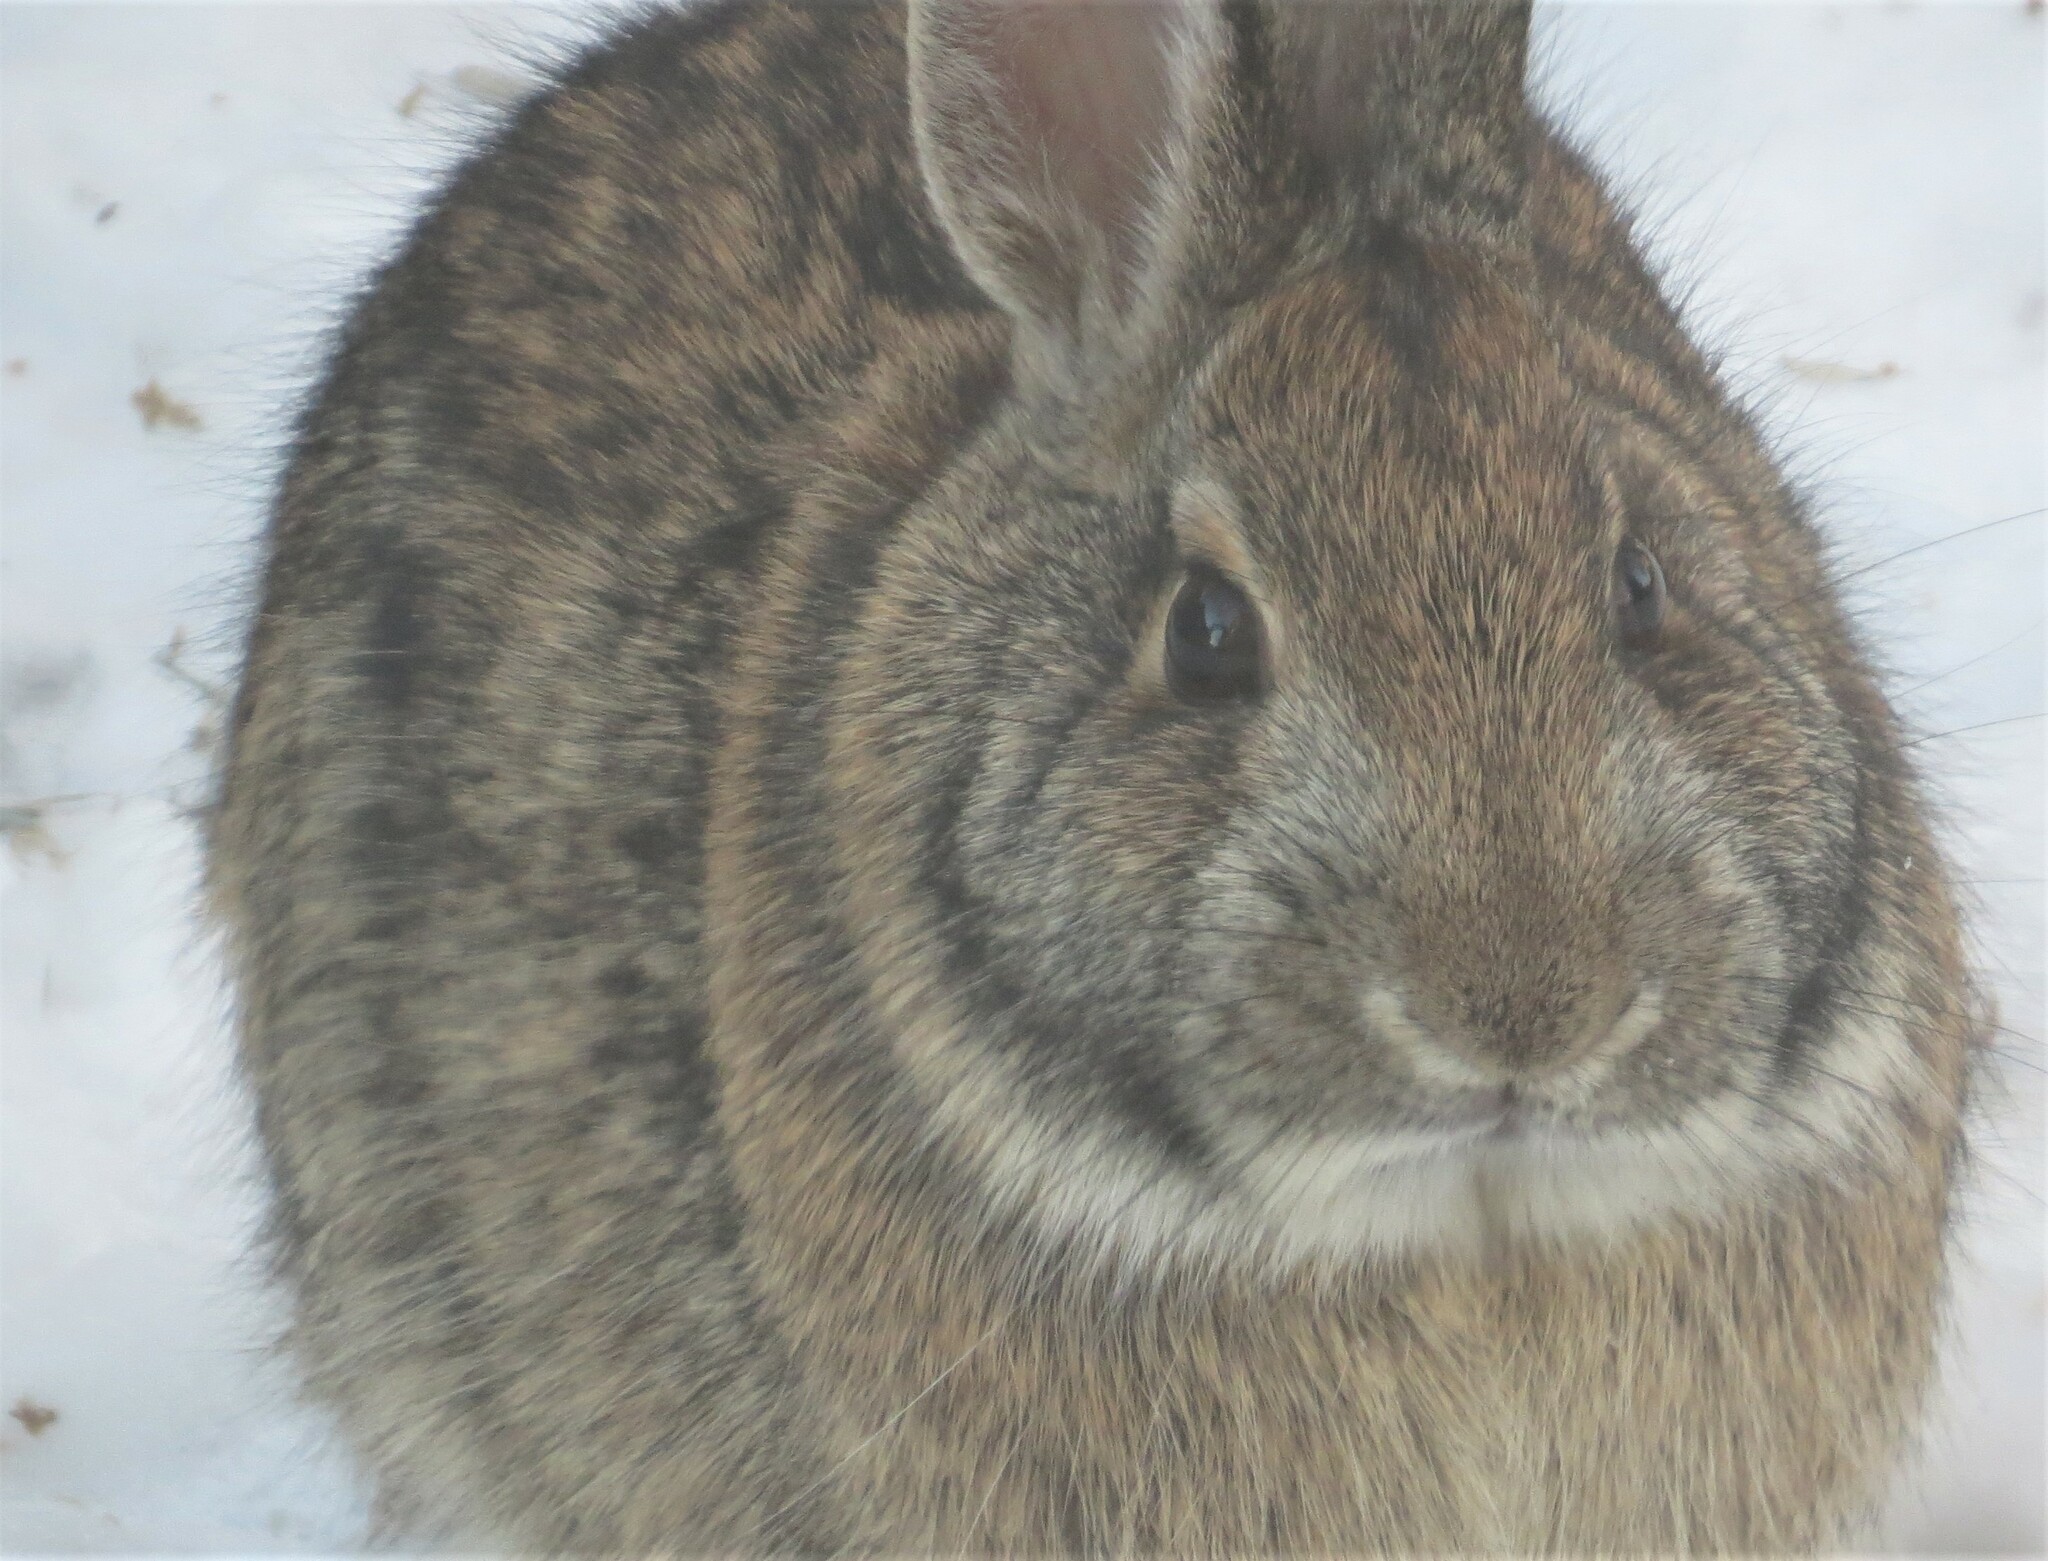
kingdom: Animalia
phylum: Chordata
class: Mammalia
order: Lagomorpha
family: Leporidae
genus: Sylvilagus
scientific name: Sylvilagus floridanus
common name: Eastern cottontail
